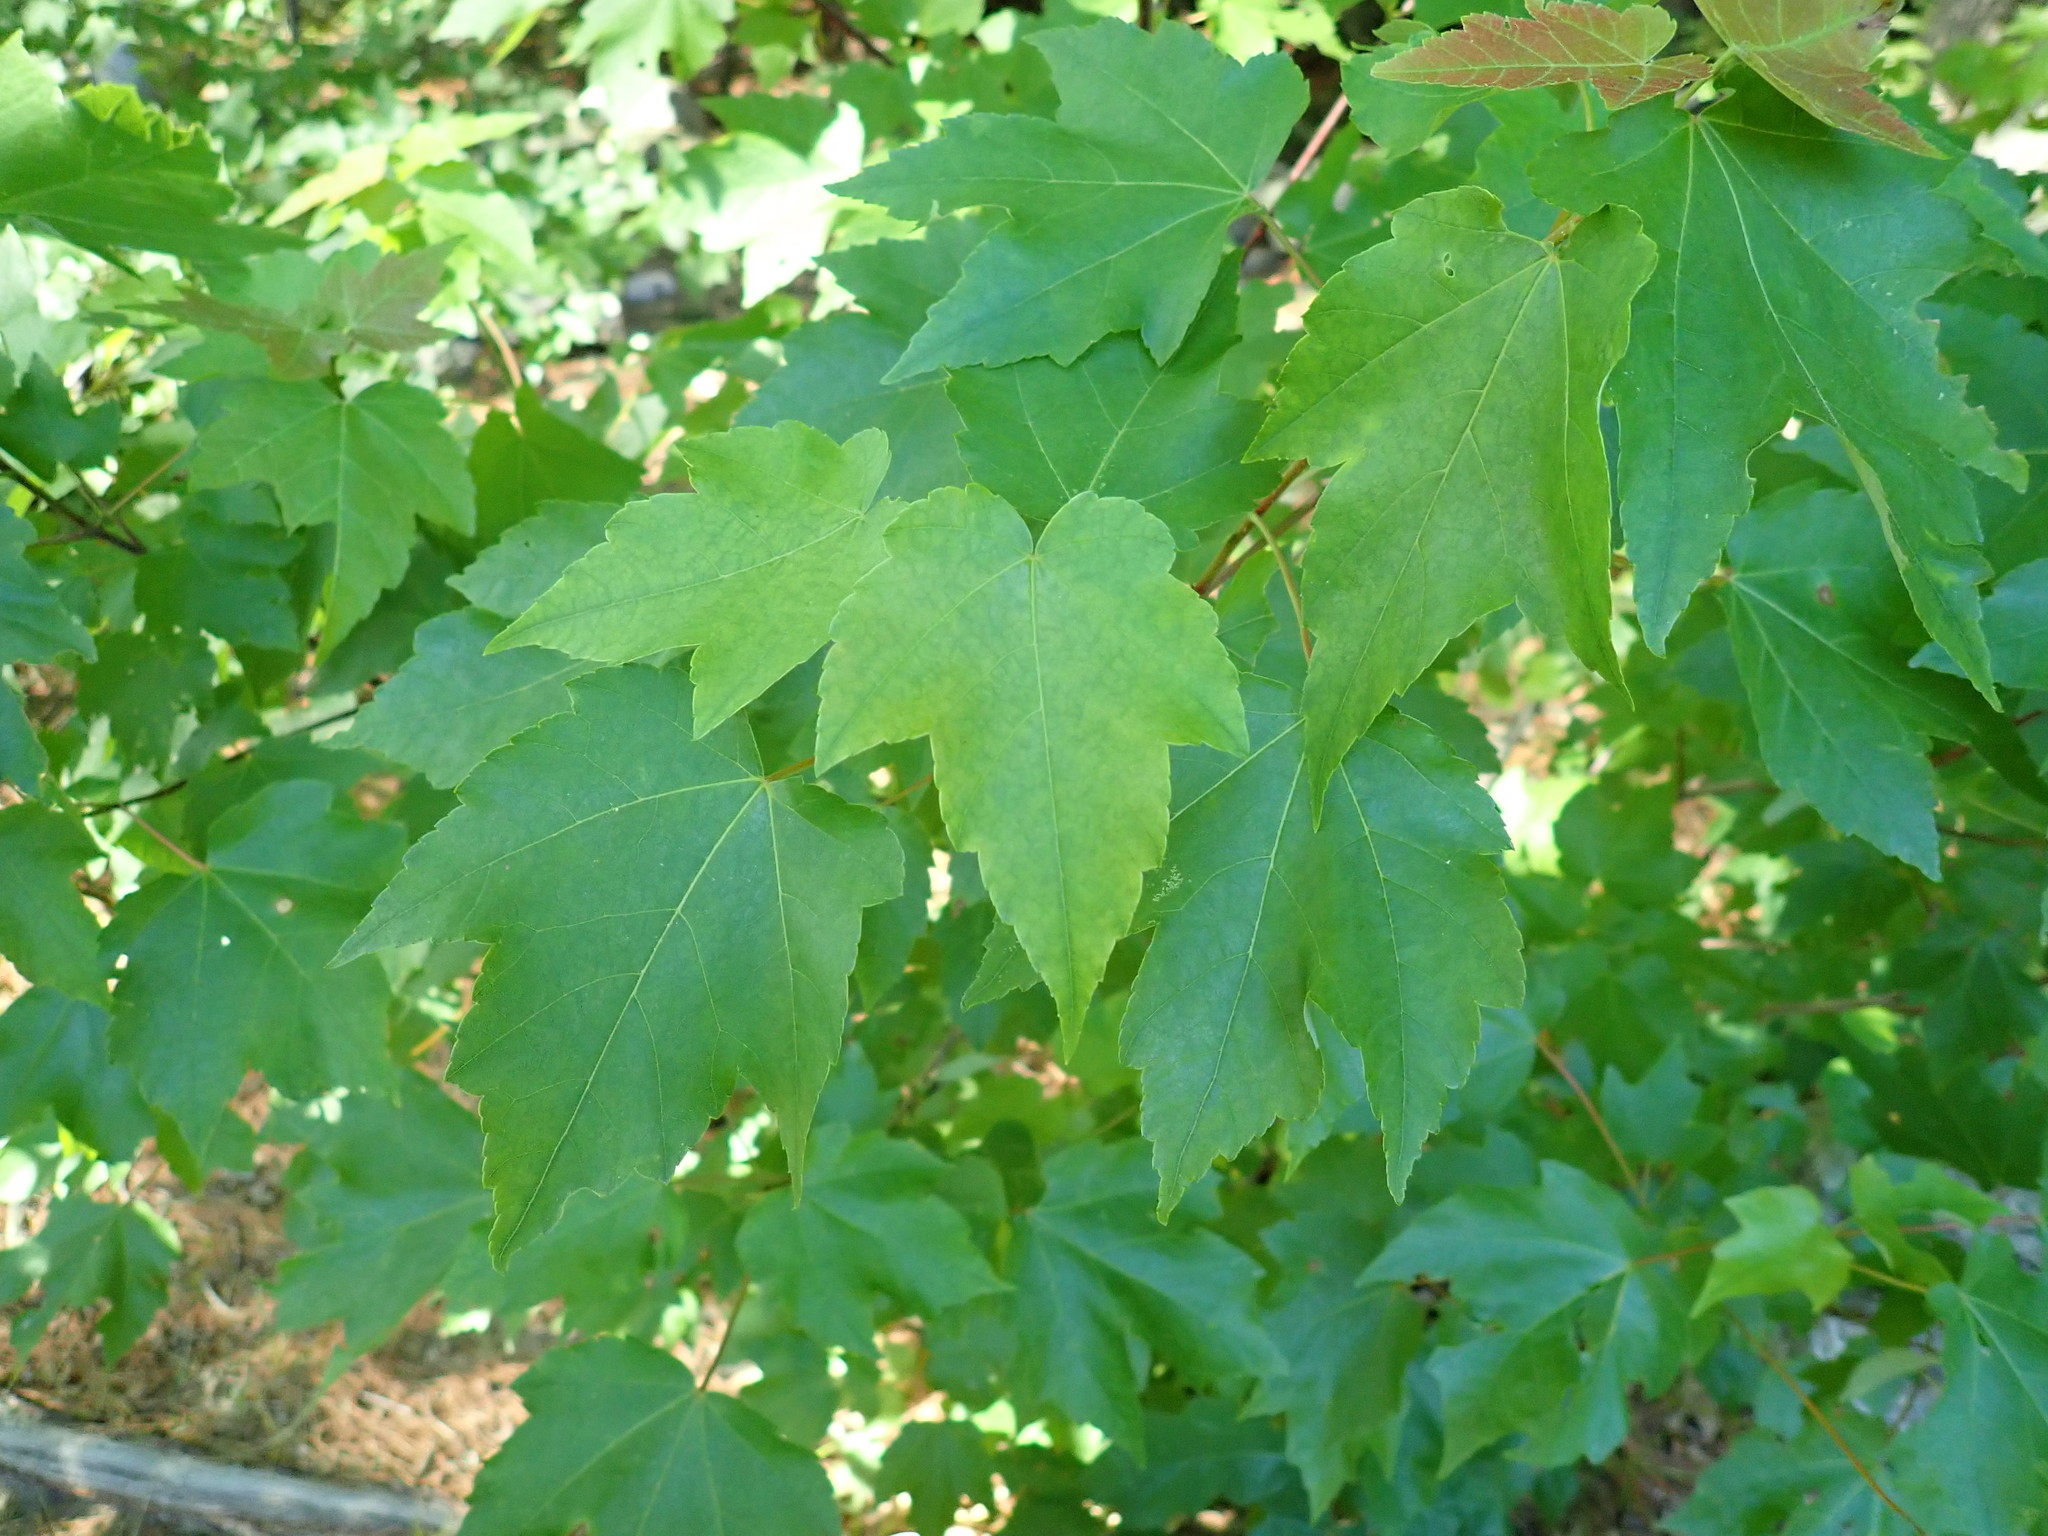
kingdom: Plantae
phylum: Tracheophyta
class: Magnoliopsida
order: Sapindales
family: Sapindaceae
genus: Acer
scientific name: Acer rubrum
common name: Red maple
